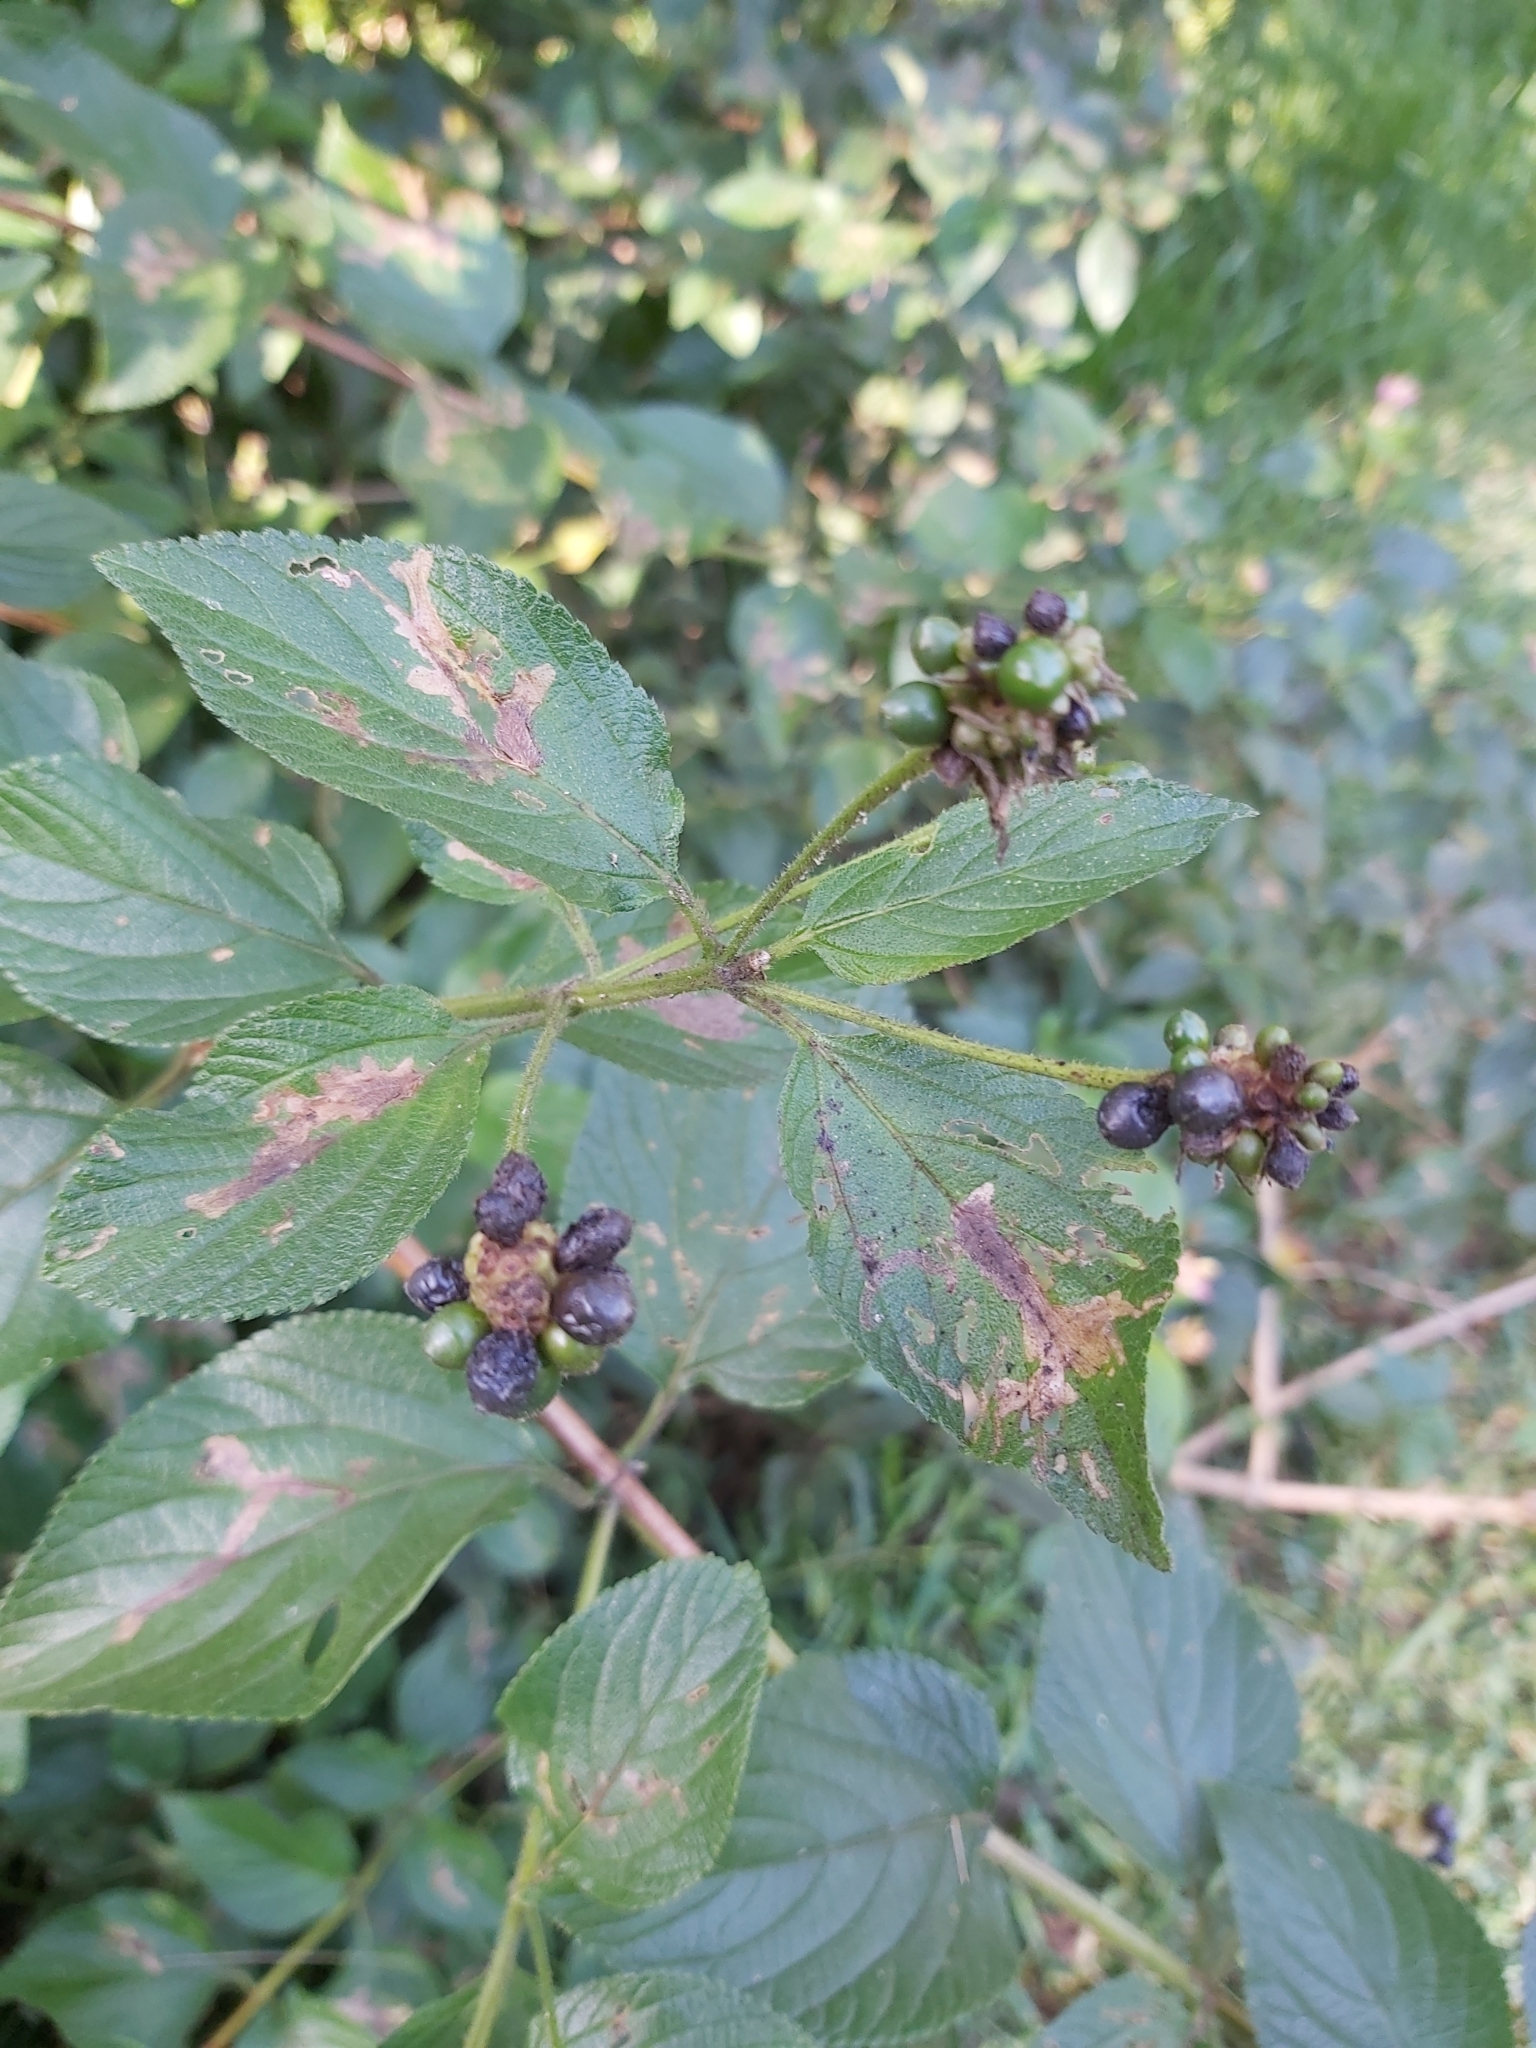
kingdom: Plantae
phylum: Tracheophyta
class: Magnoliopsida
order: Lamiales
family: Verbenaceae
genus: Lantana
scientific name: Lantana camara
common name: Lantana
